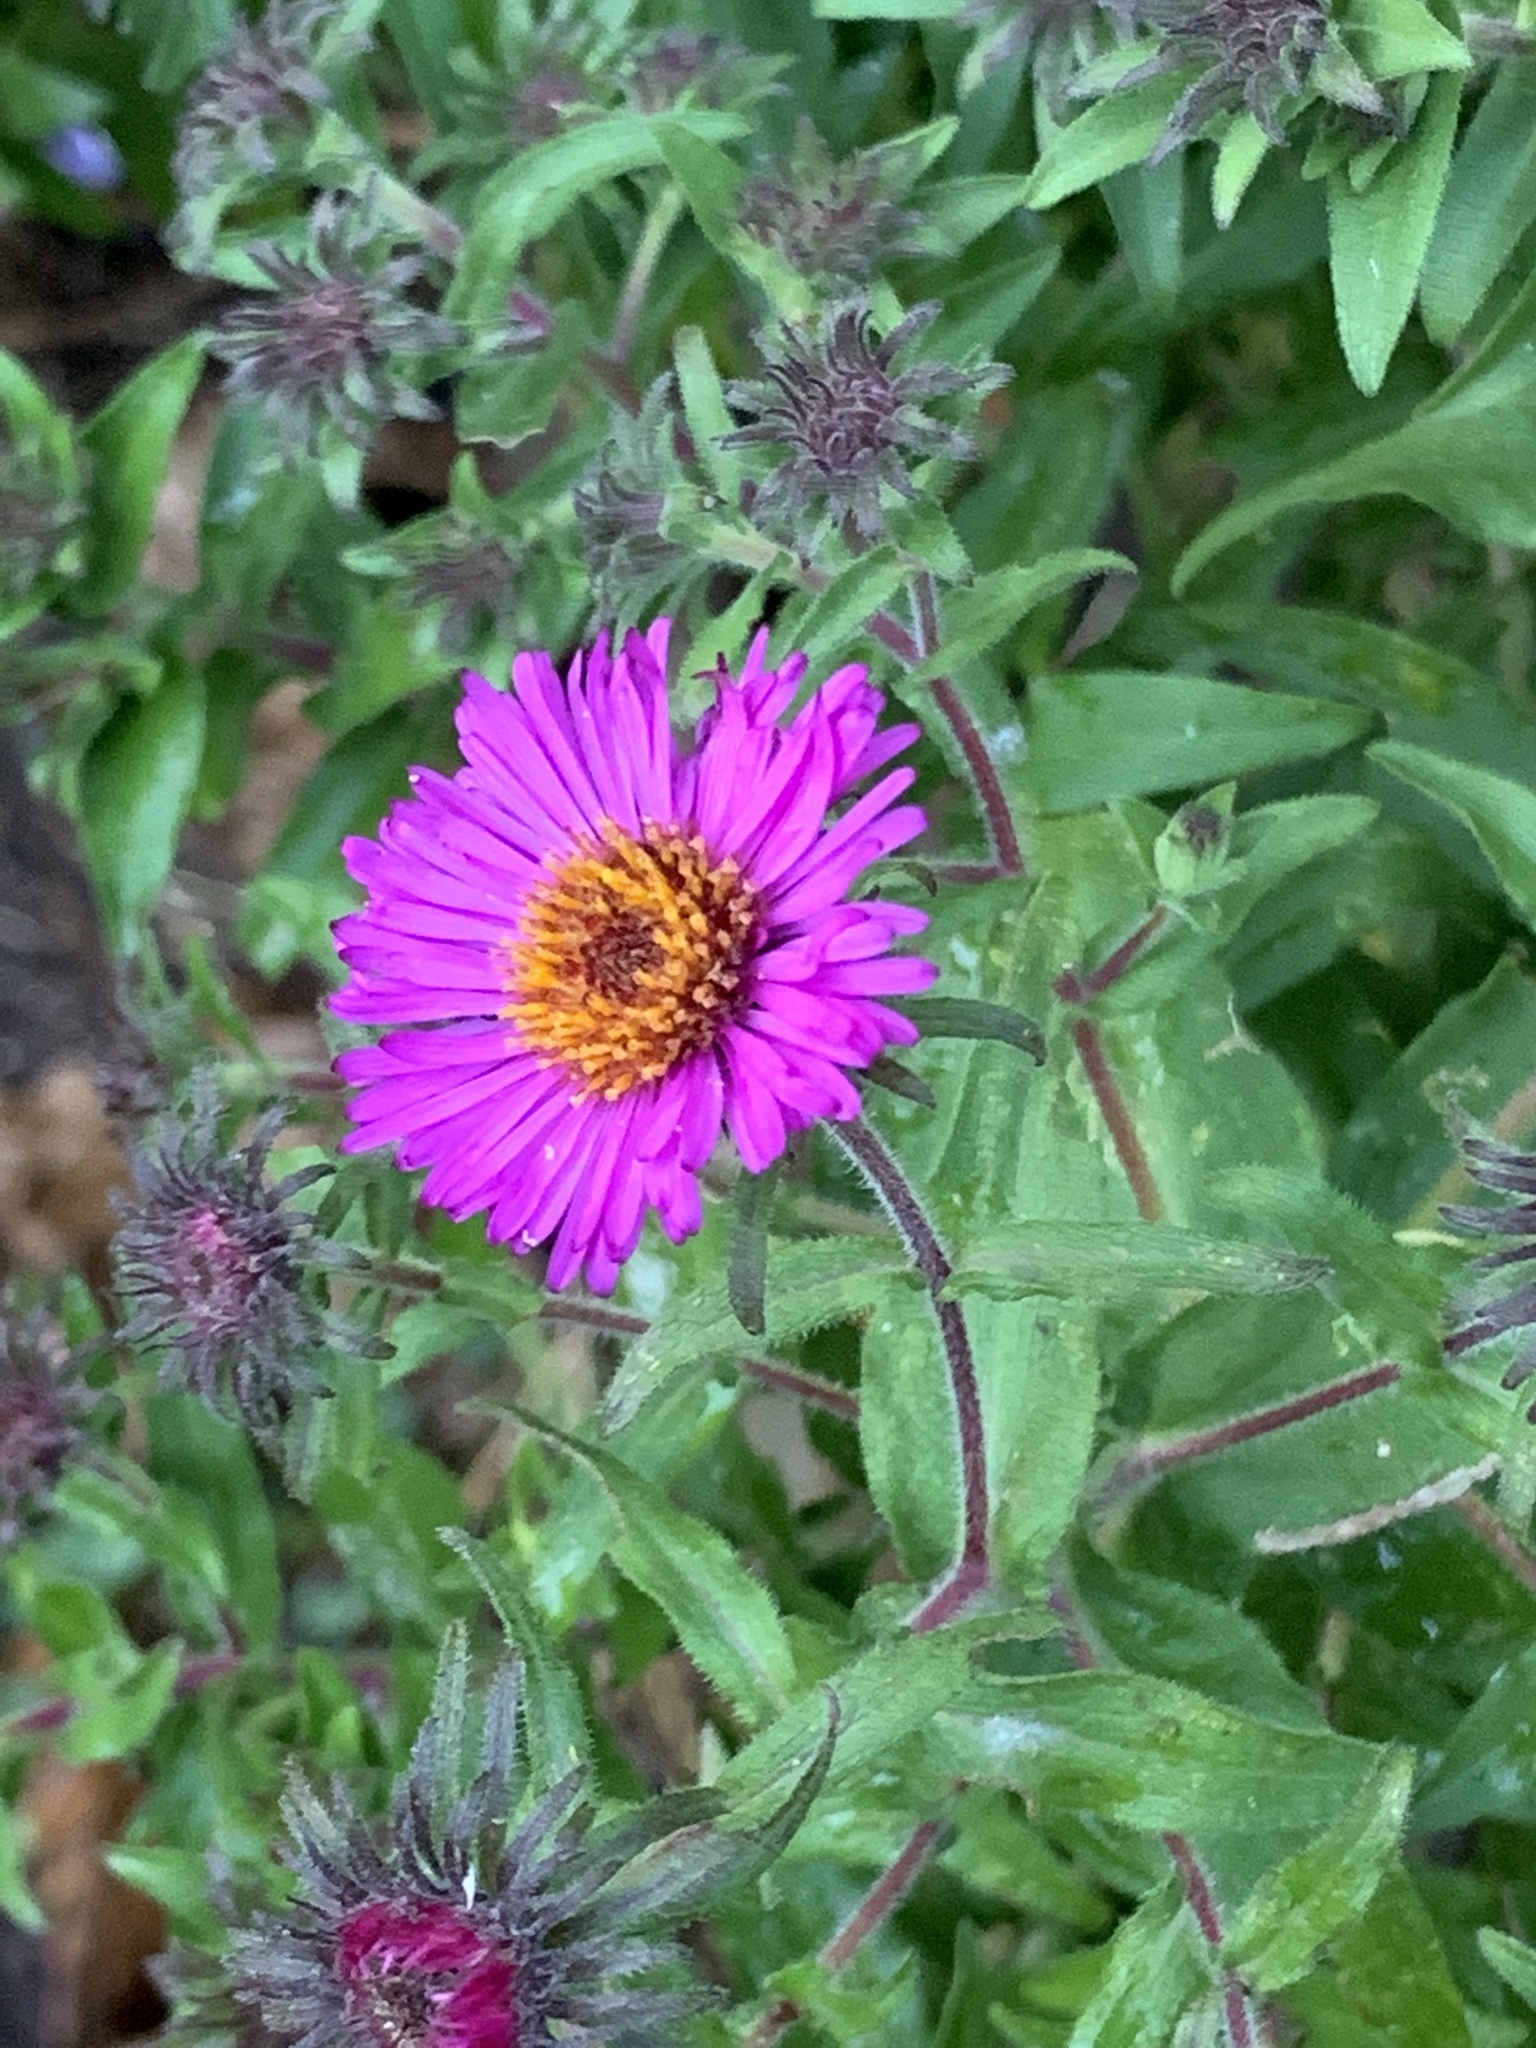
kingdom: Plantae
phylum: Tracheophyta
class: Magnoliopsida
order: Asterales
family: Asteraceae
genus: Symphyotrichum
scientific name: Symphyotrichum novae-angliae
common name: Michaelmas daisy
